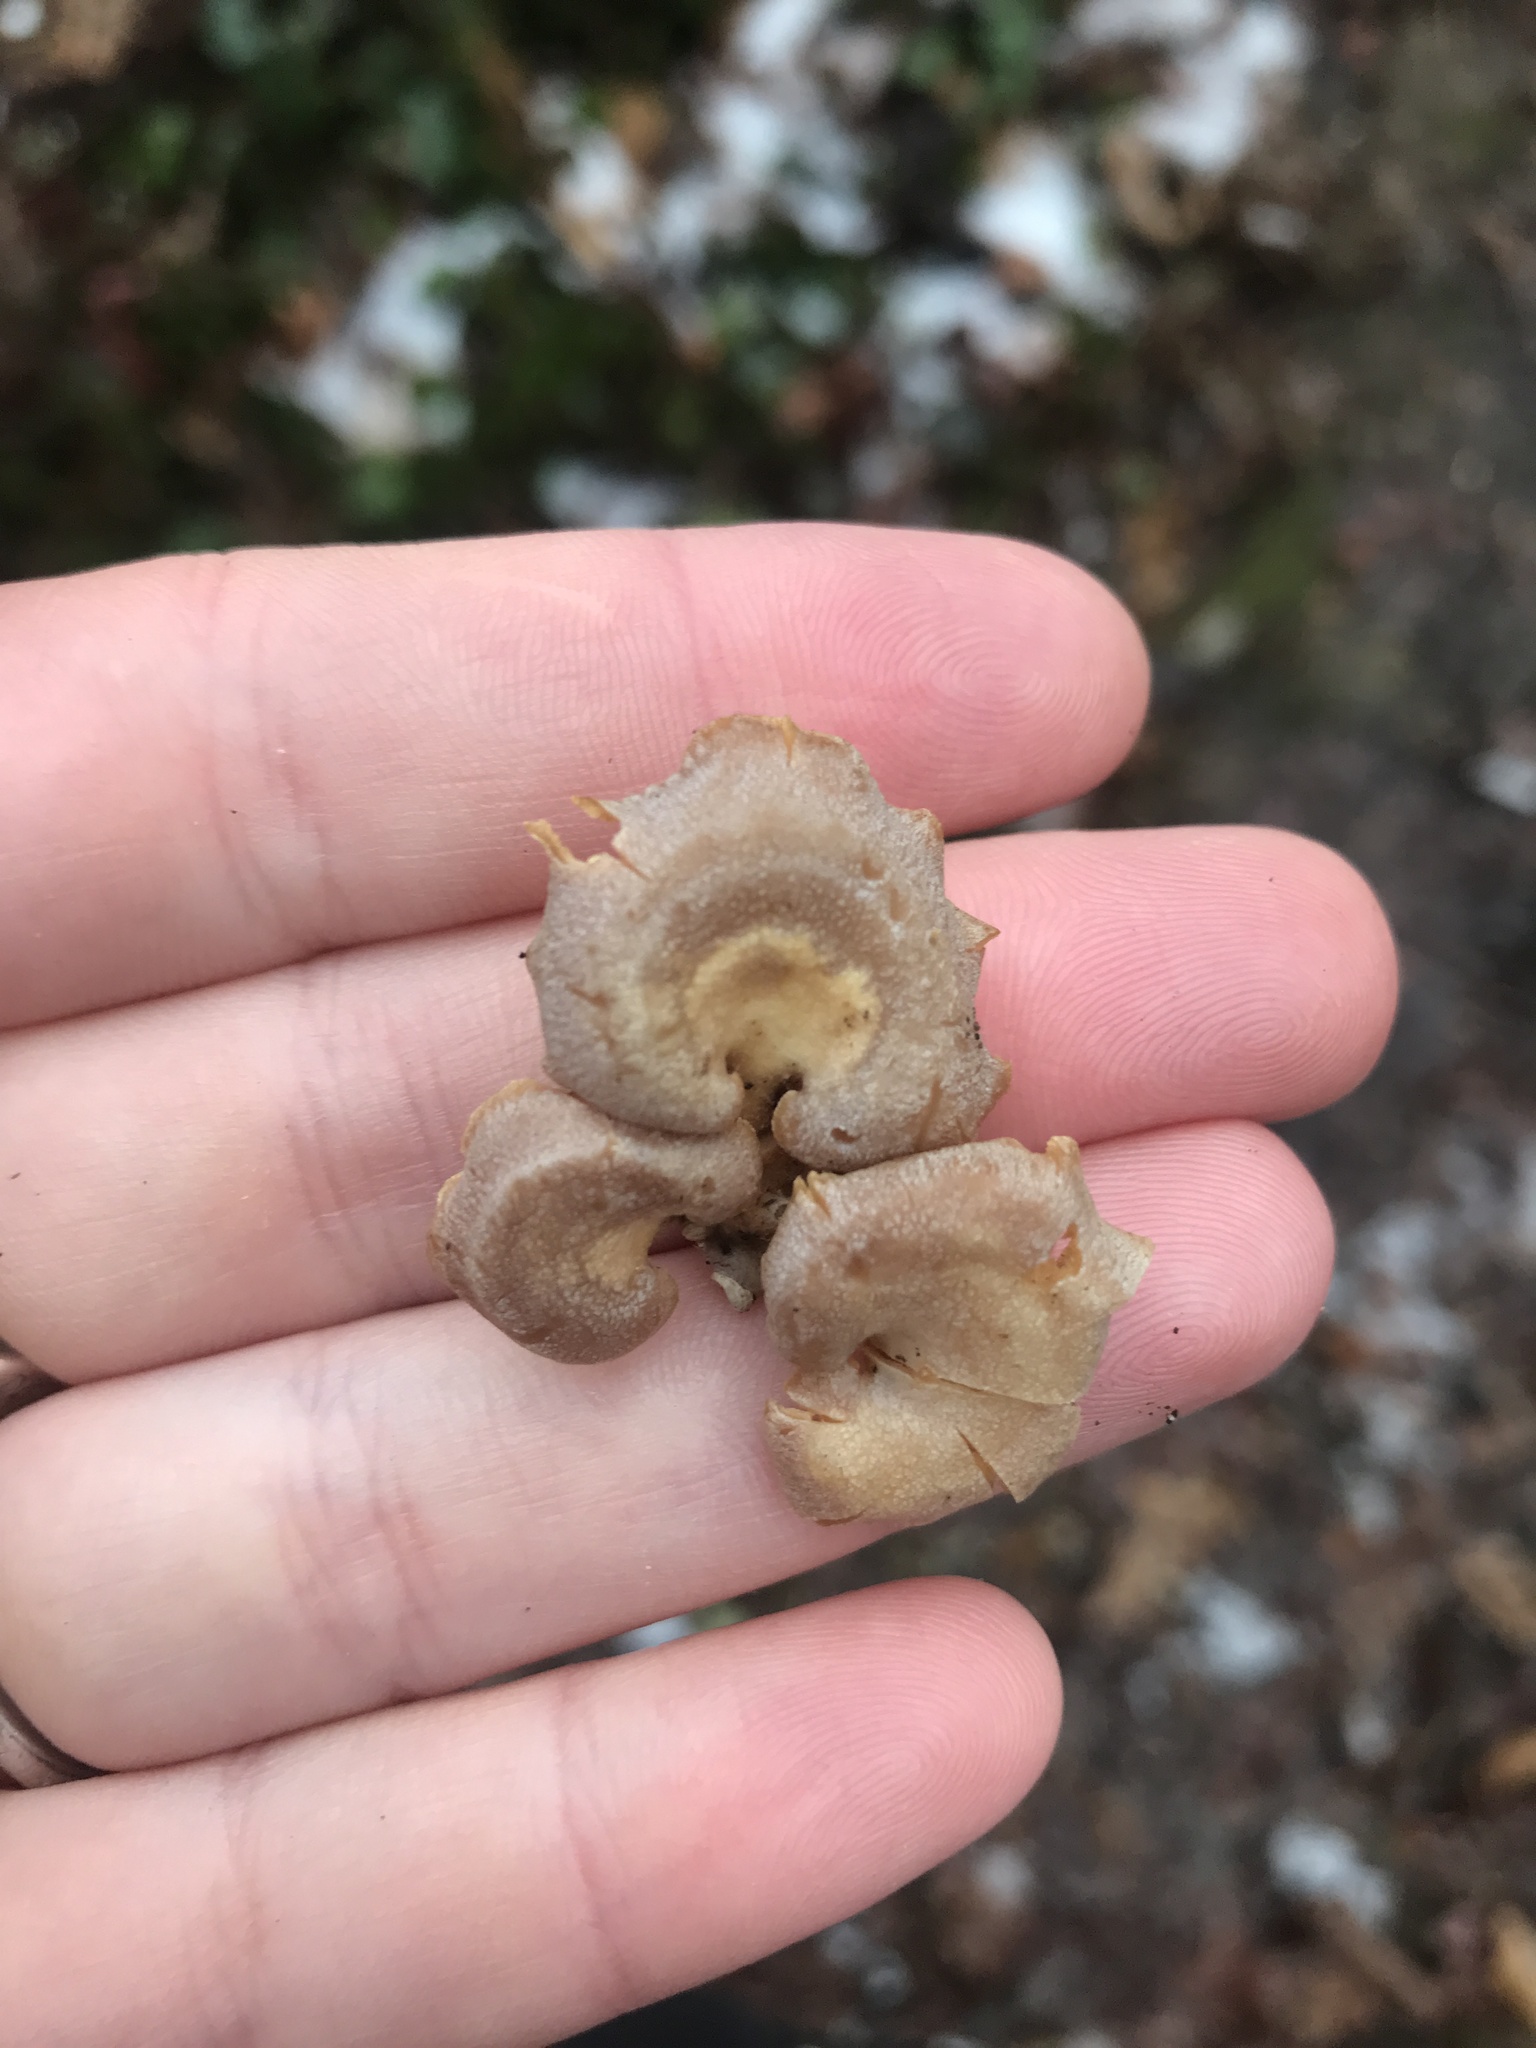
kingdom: Fungi
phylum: Basidiomycota
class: Agaricomycetes
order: Agaricales
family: Mycenaceae
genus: Panellus
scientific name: Panellus stipticus
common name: Bitter oysterling
